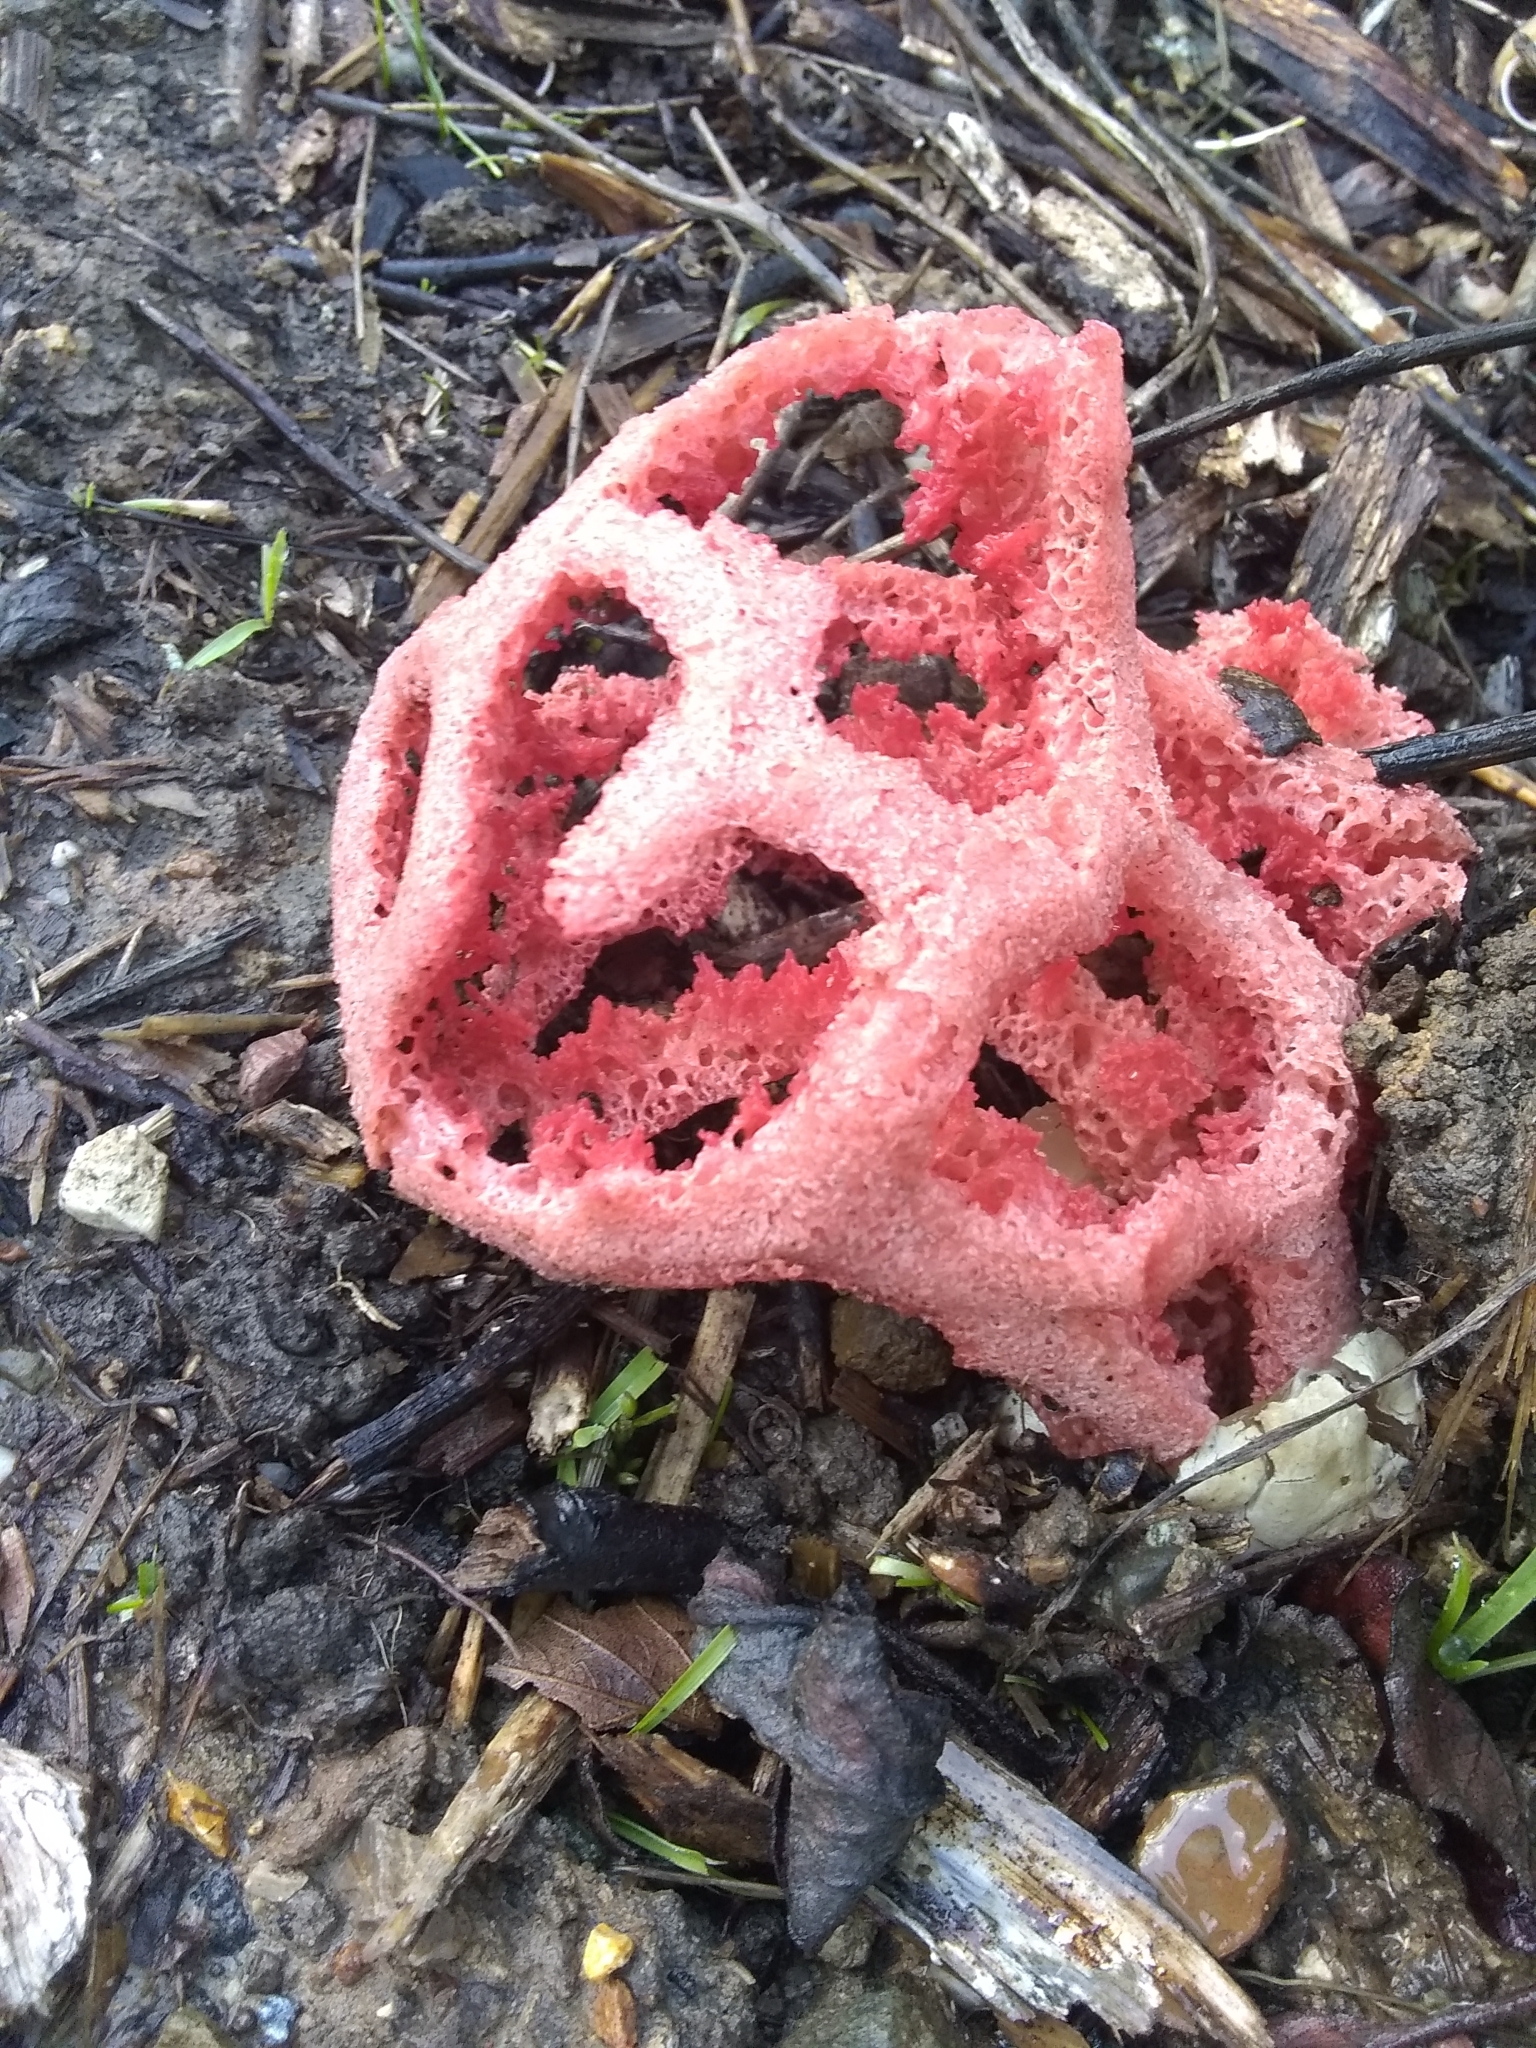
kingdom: Fungi
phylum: Basidiomycota
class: Agaricomycetes
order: Phallales
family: Phallaceae
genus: Clathrus
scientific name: Clathrus ruber
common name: Red cage
